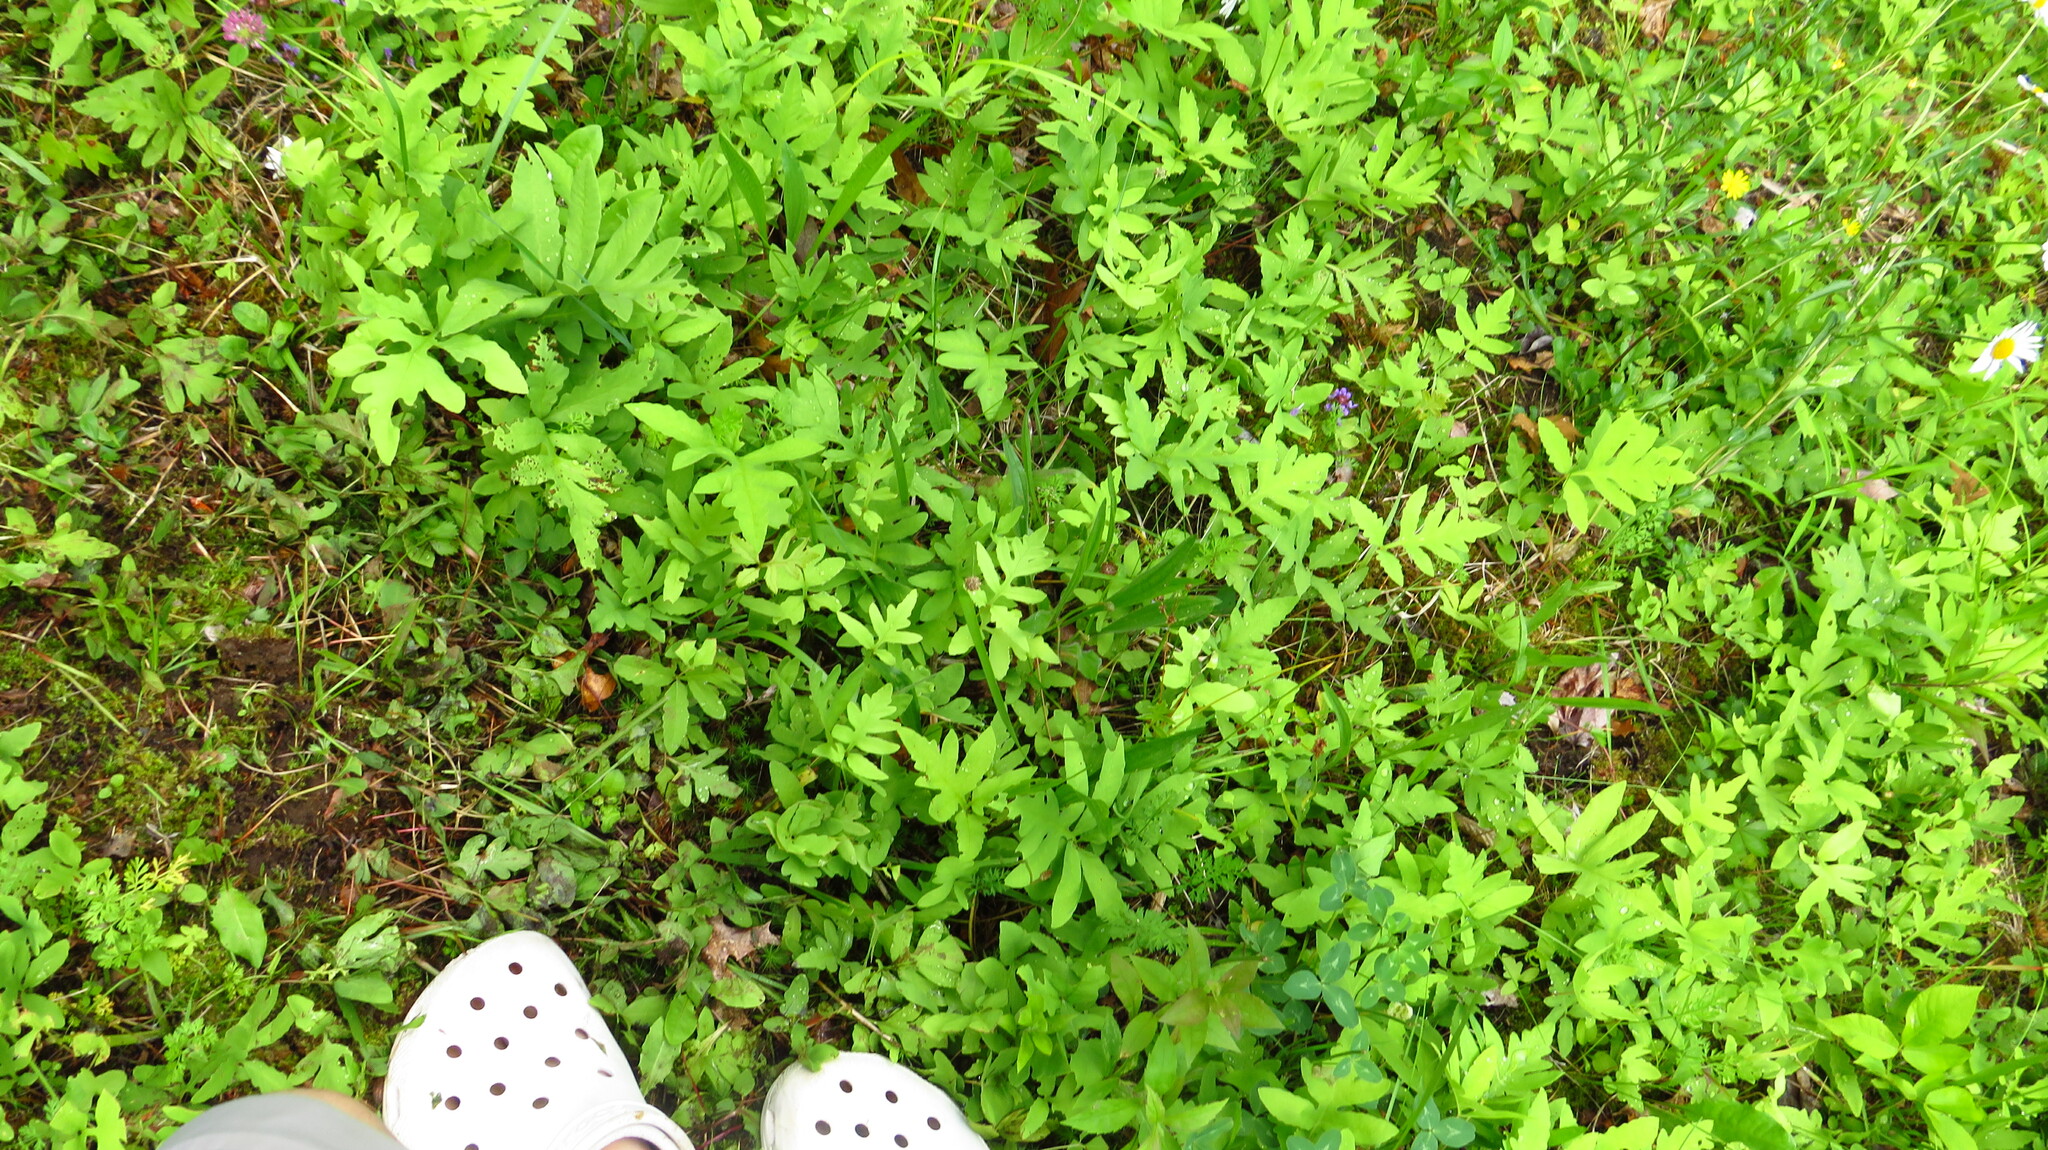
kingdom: Plantae
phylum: Tracheophyta
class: Polypodiopsida
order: Polypodiales
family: Onocleaceae
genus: Onoclea
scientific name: Onoclea sensibilis
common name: Sensitive fern
